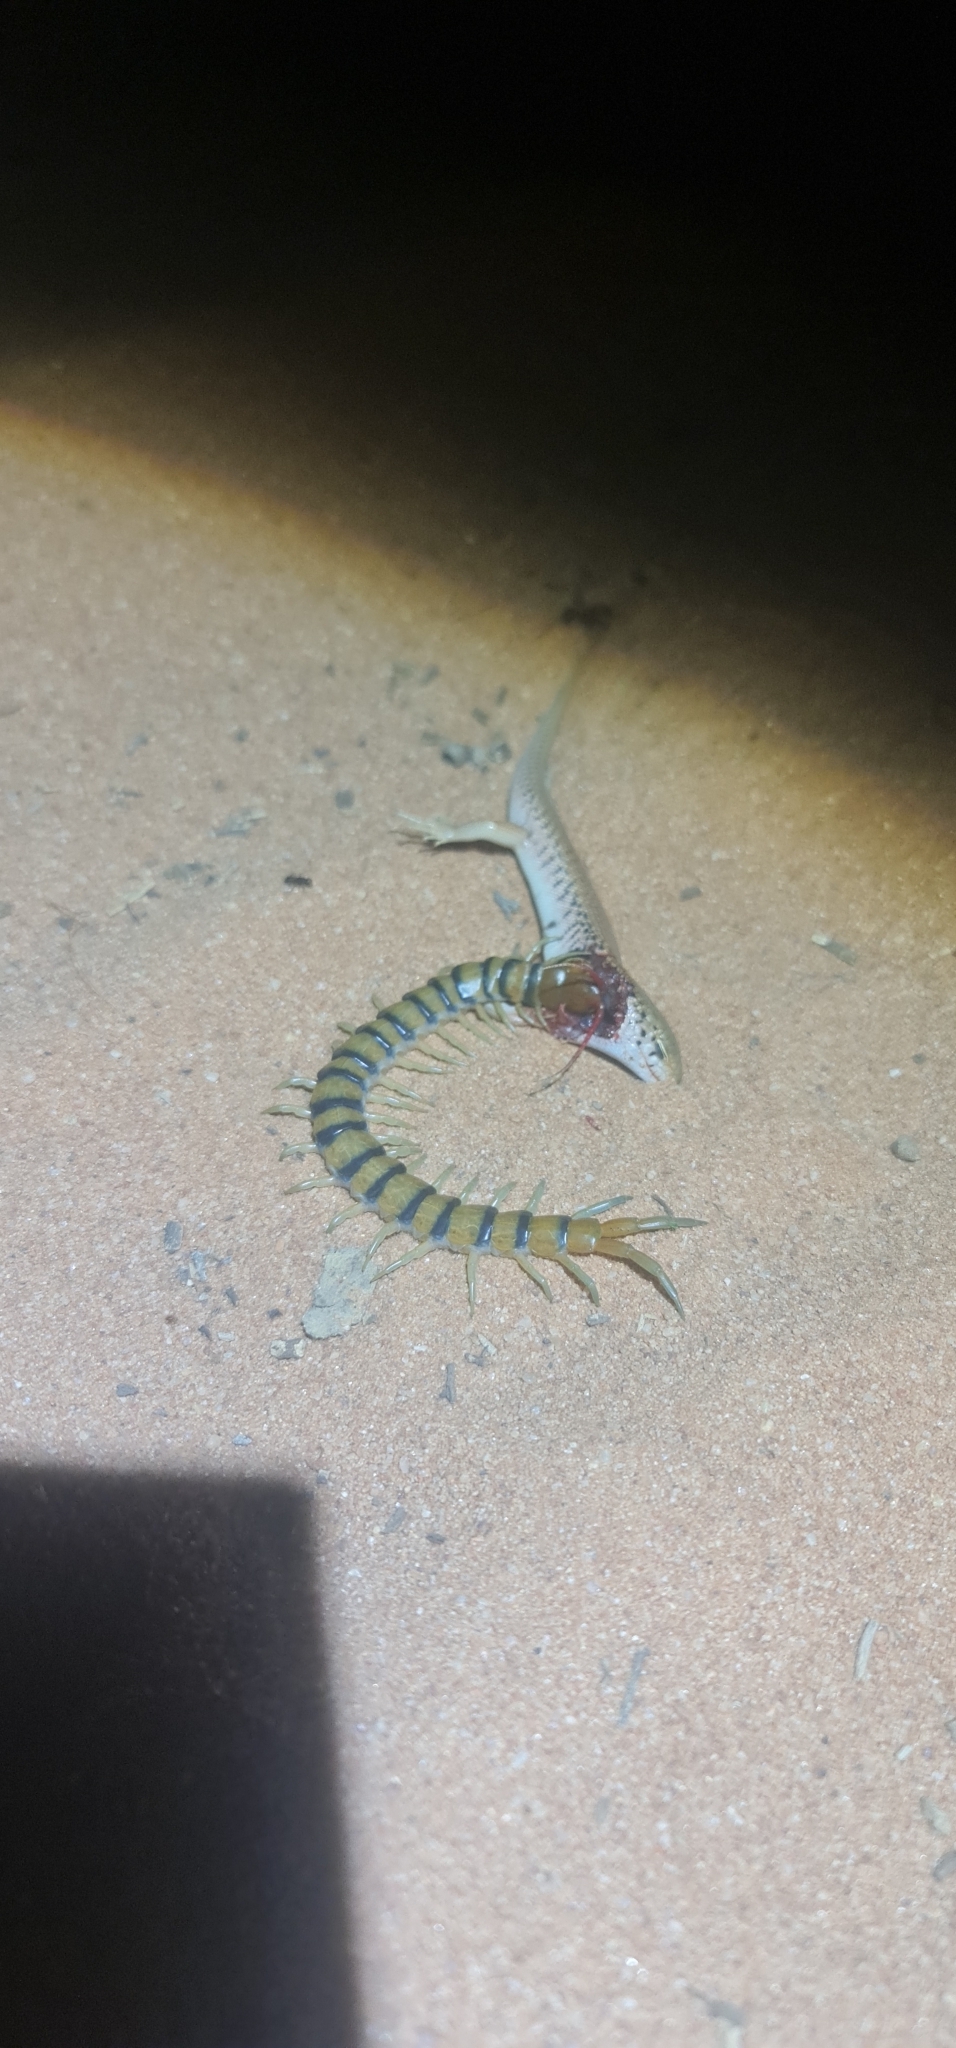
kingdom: Animalia
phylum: Chordata
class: Squamata
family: Scincidae
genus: Liopholis
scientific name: Liopholis inornata
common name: Desert skink
